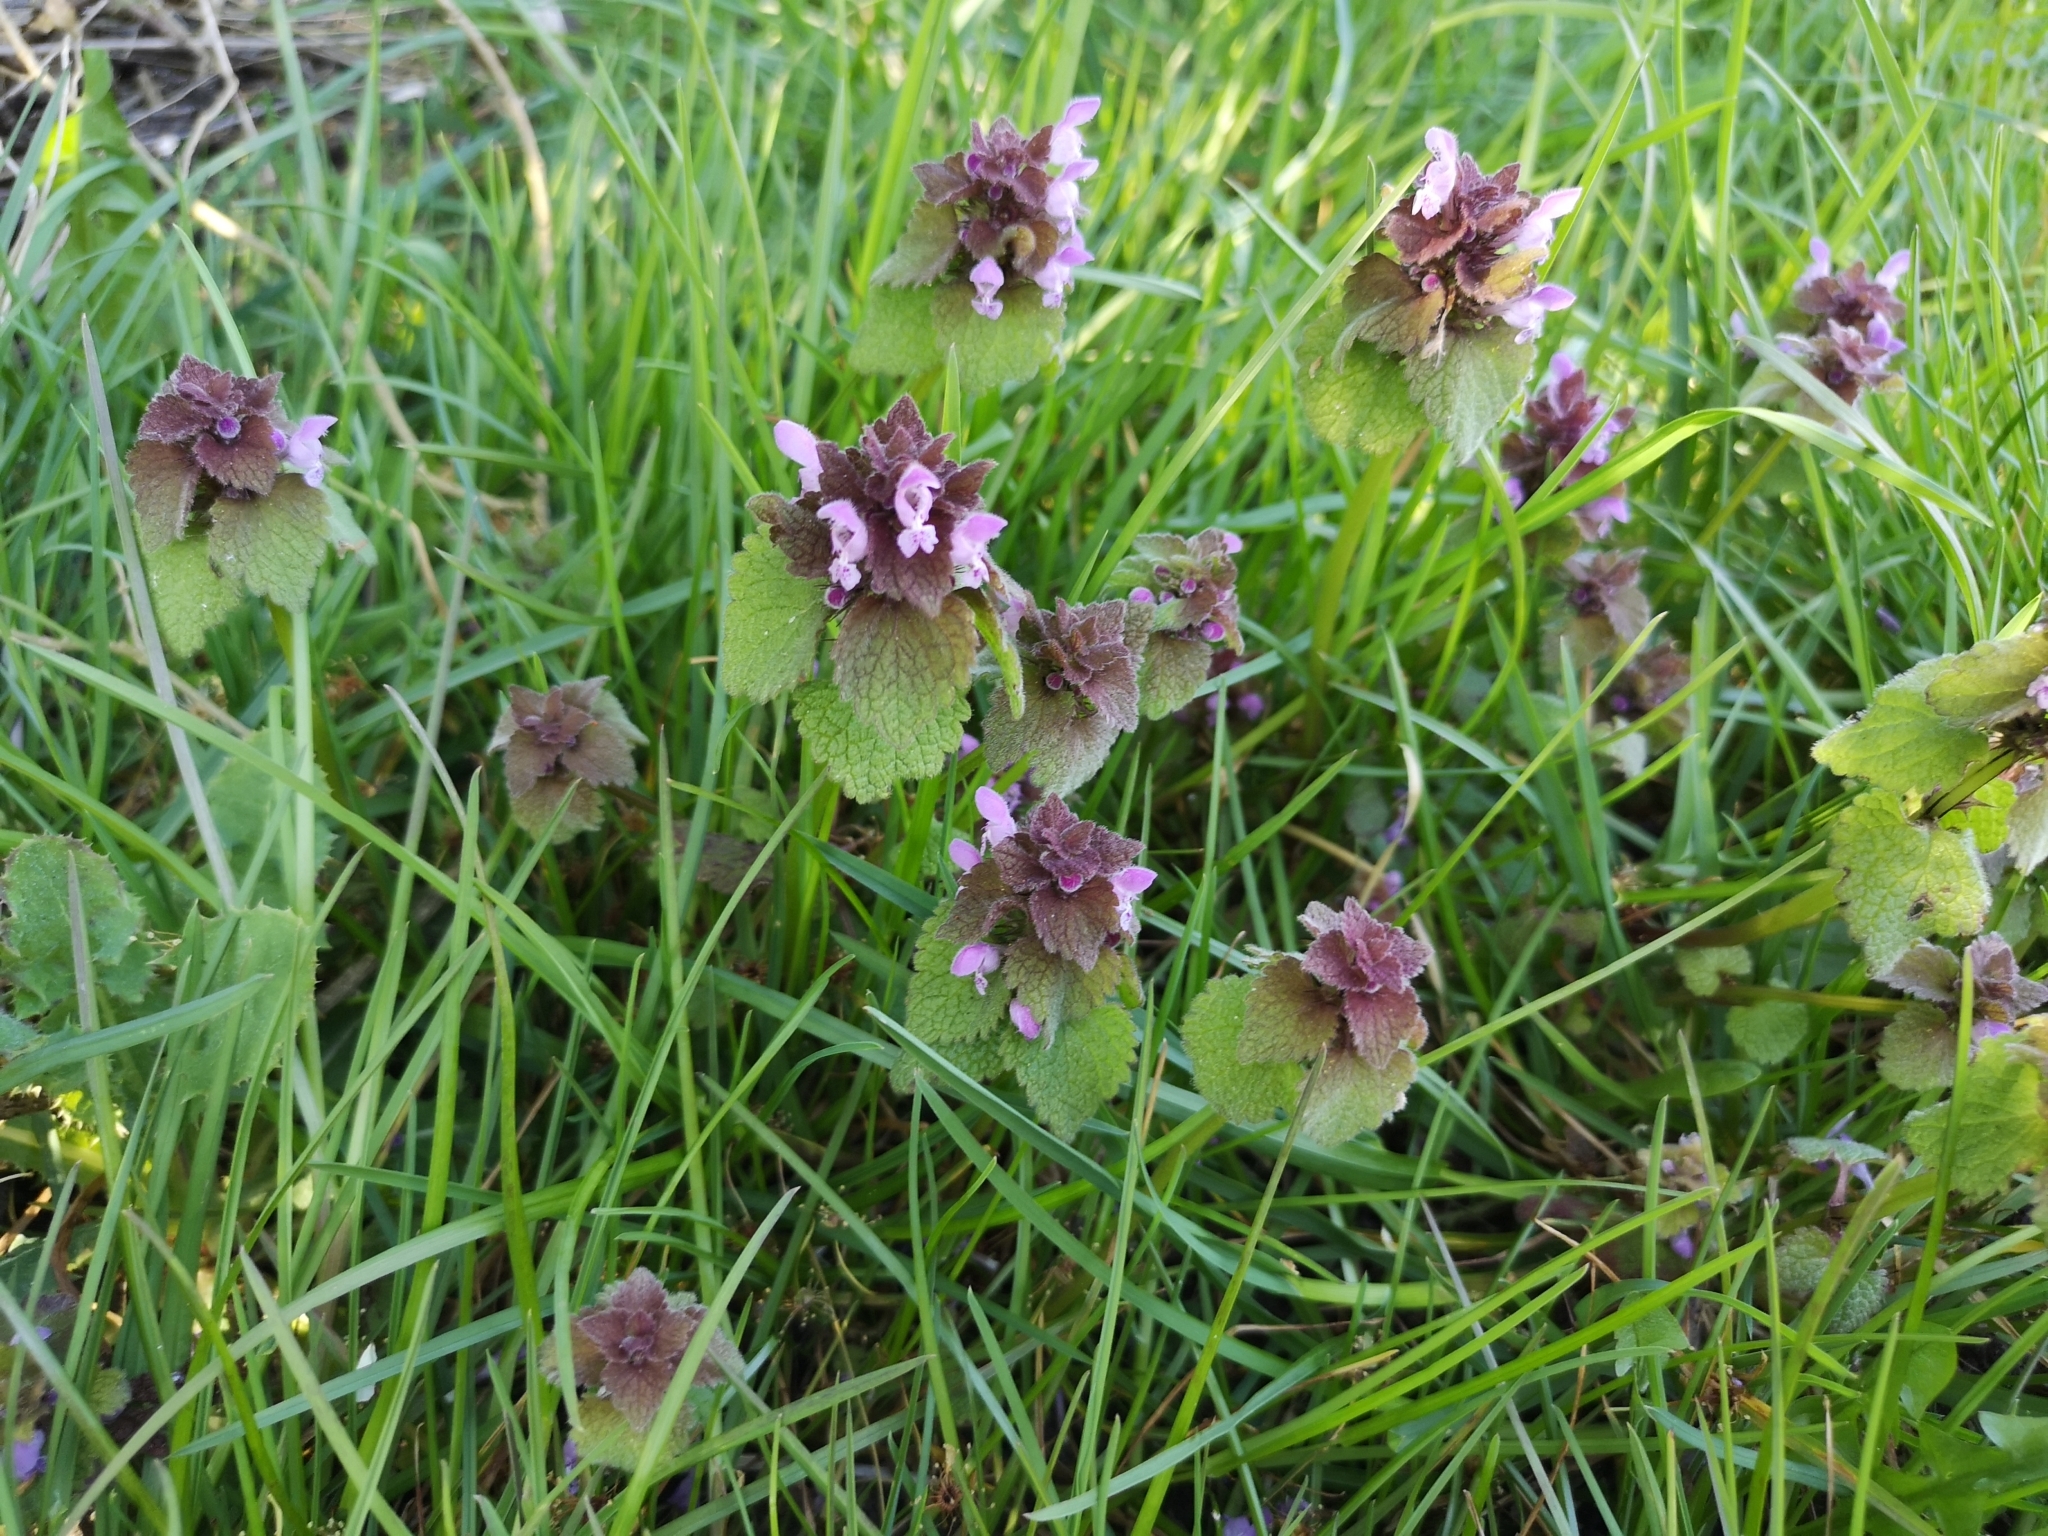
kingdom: Plantae
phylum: Tracheophyta
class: Magnoliopsida
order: Lamiales
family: Lamiaceae
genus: Lamium
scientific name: Lamium purpureum
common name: Red dead-nettle
